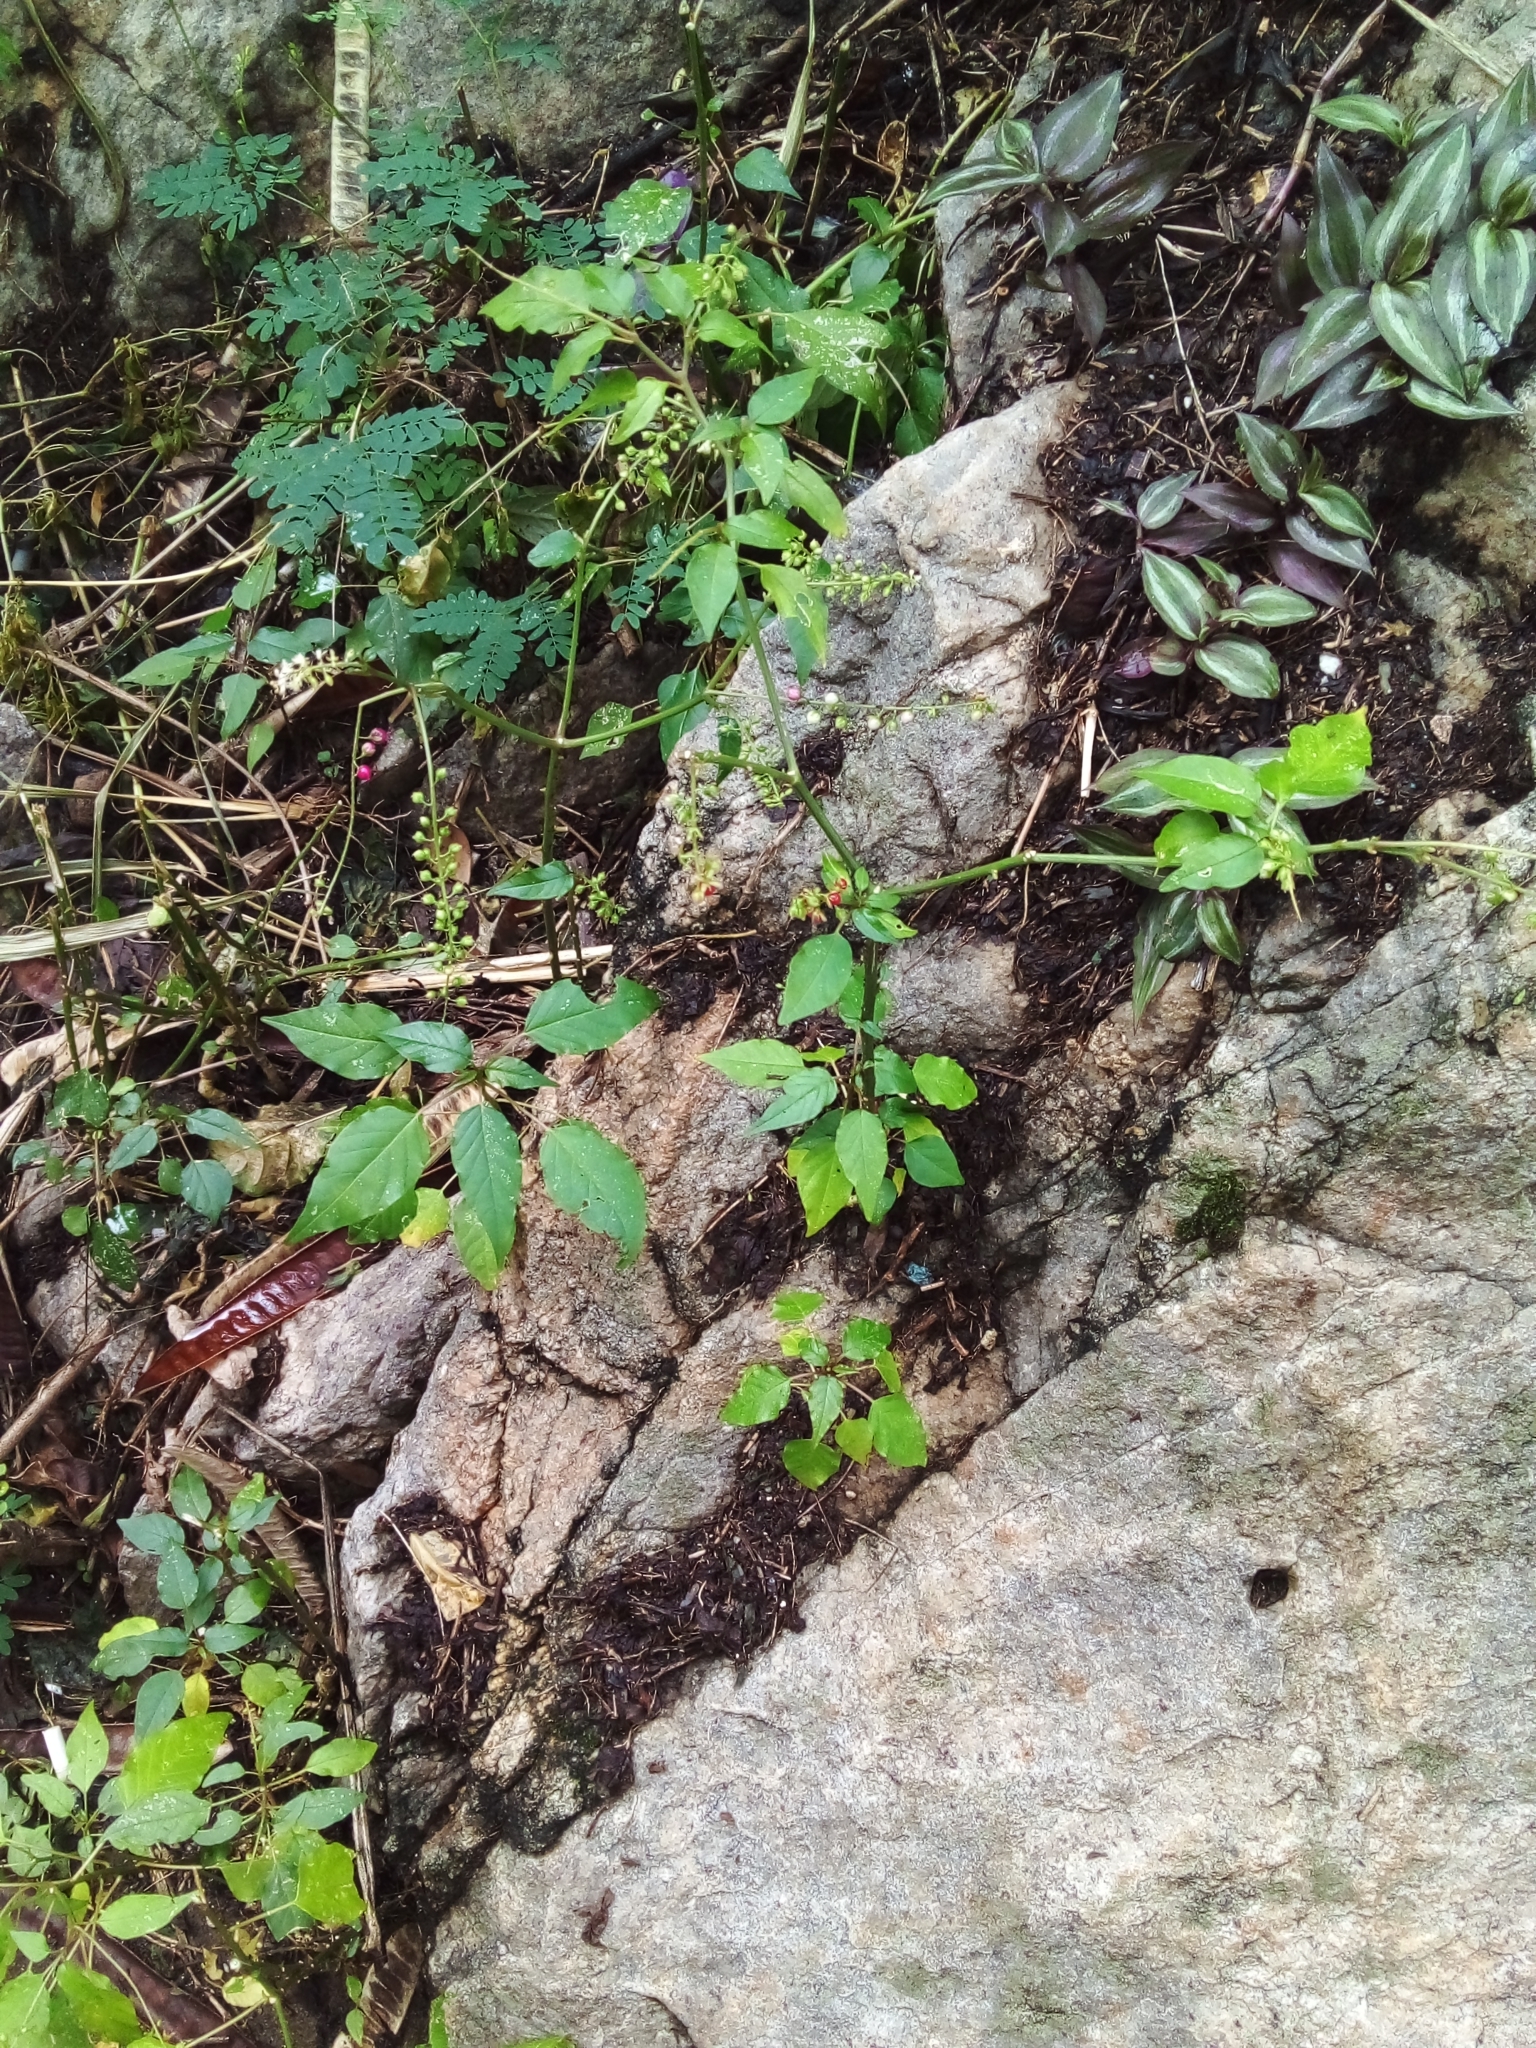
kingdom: Plantae
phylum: Tracheophyta
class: Magnoliopsida
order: Caryophyllales
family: Phytolaccaceae
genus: Rivina
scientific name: Rivina humilis
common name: Rougeplant
